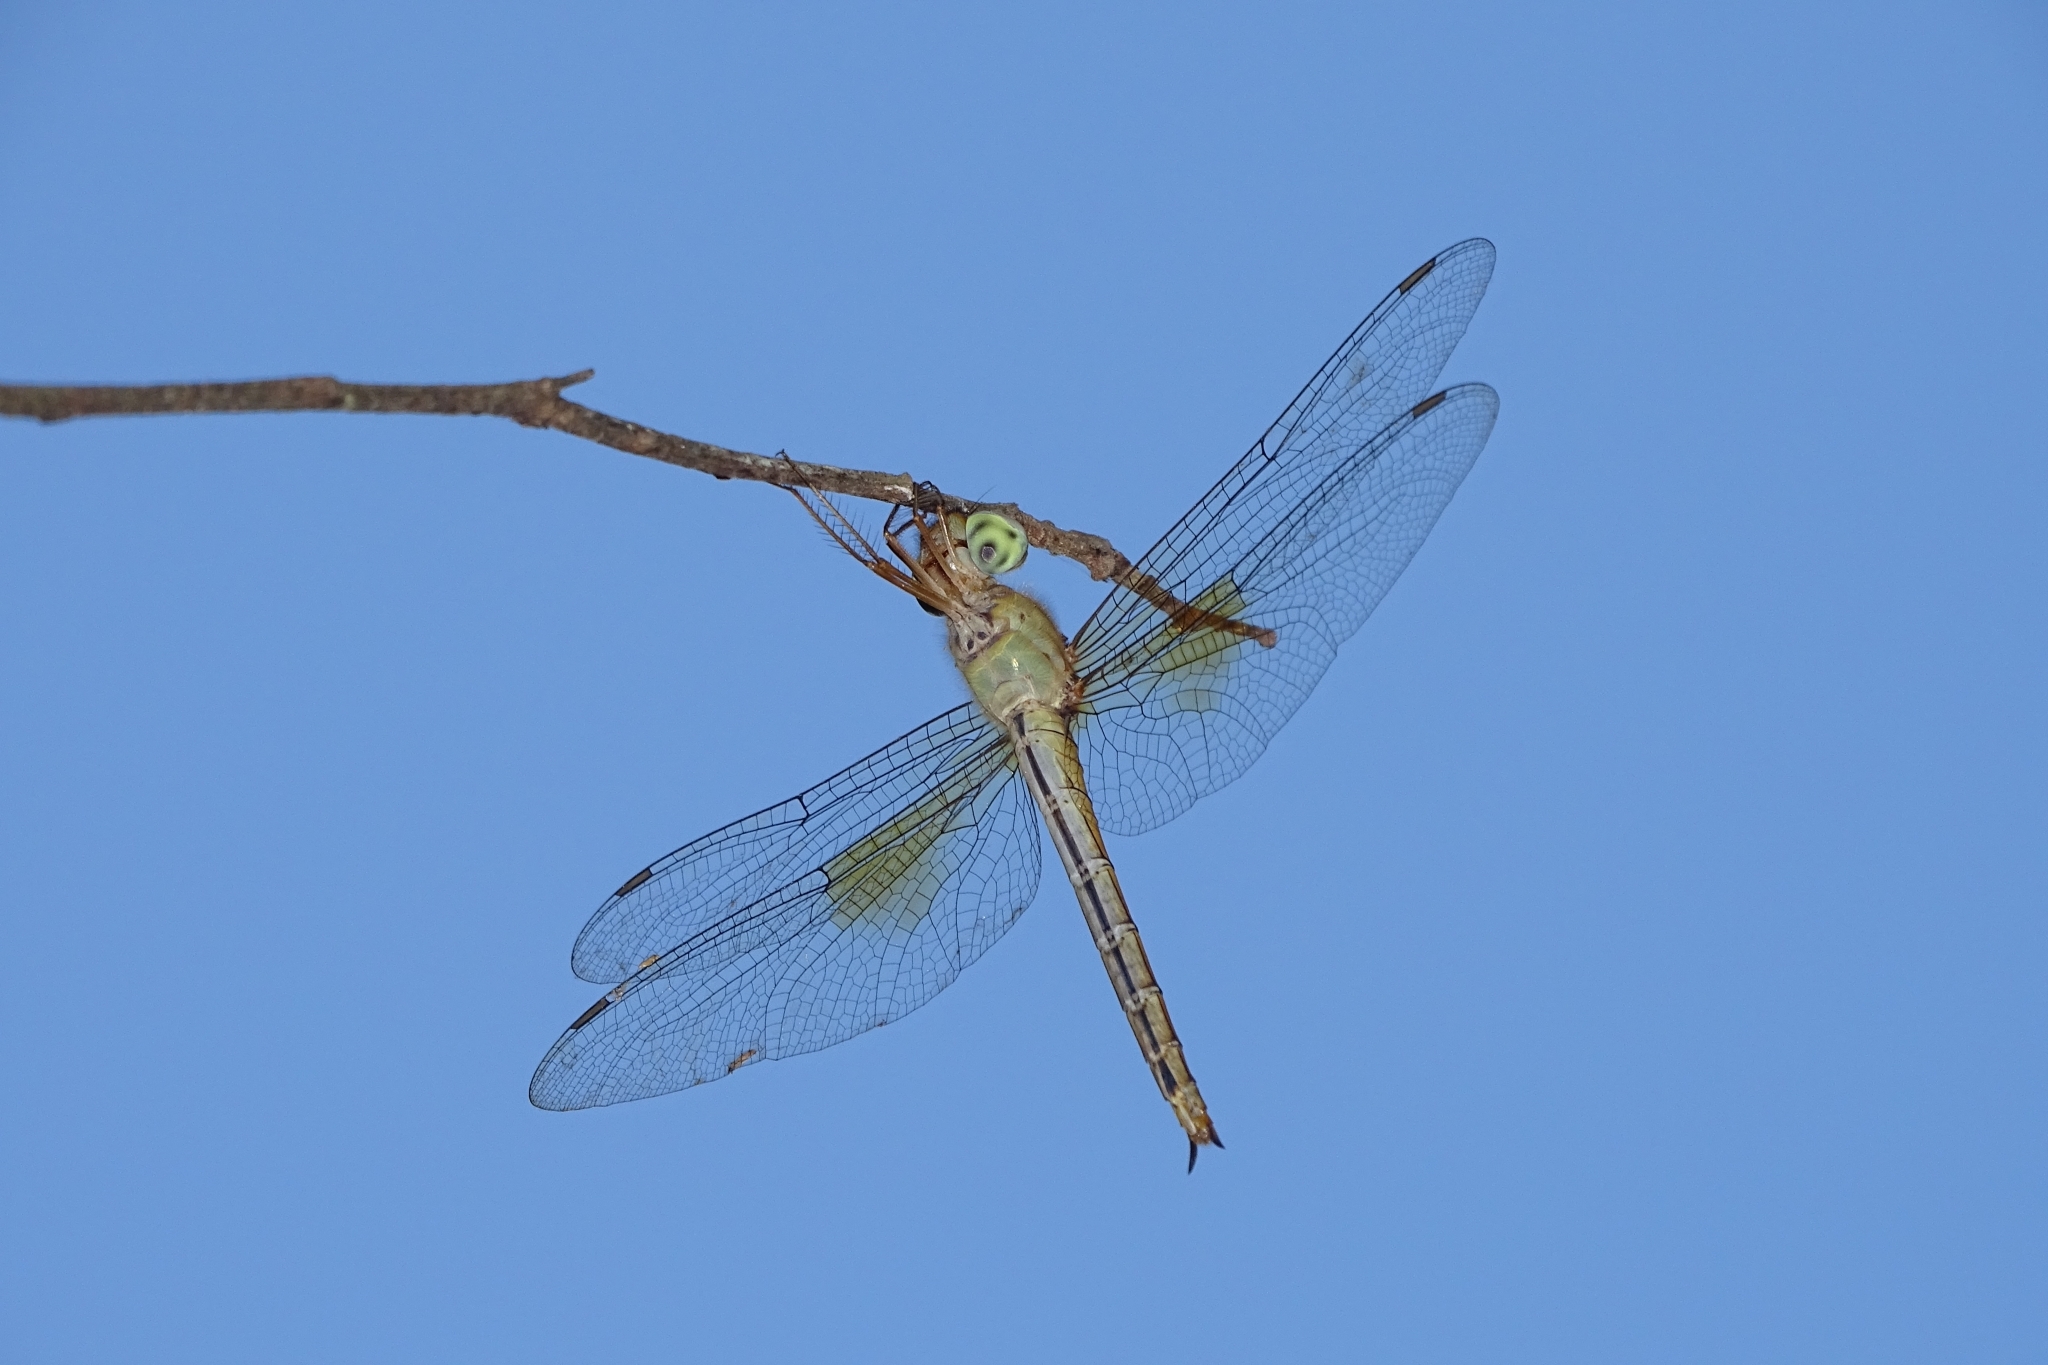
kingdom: Animalia
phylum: Arthropoda
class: Insecta
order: Odonata
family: Libellulidae
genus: Tholymis
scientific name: Tholymis tillarga
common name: Coral-tailed cloud wing
